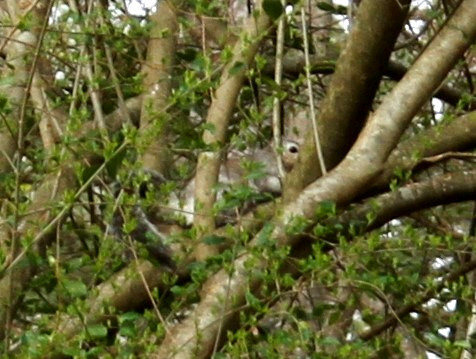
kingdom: Animalia
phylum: Chordata
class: Mammalia
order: Rodentia
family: Sciuridae
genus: Sciurus
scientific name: Sciurus carolinensis
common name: Eastern gray squirrel
